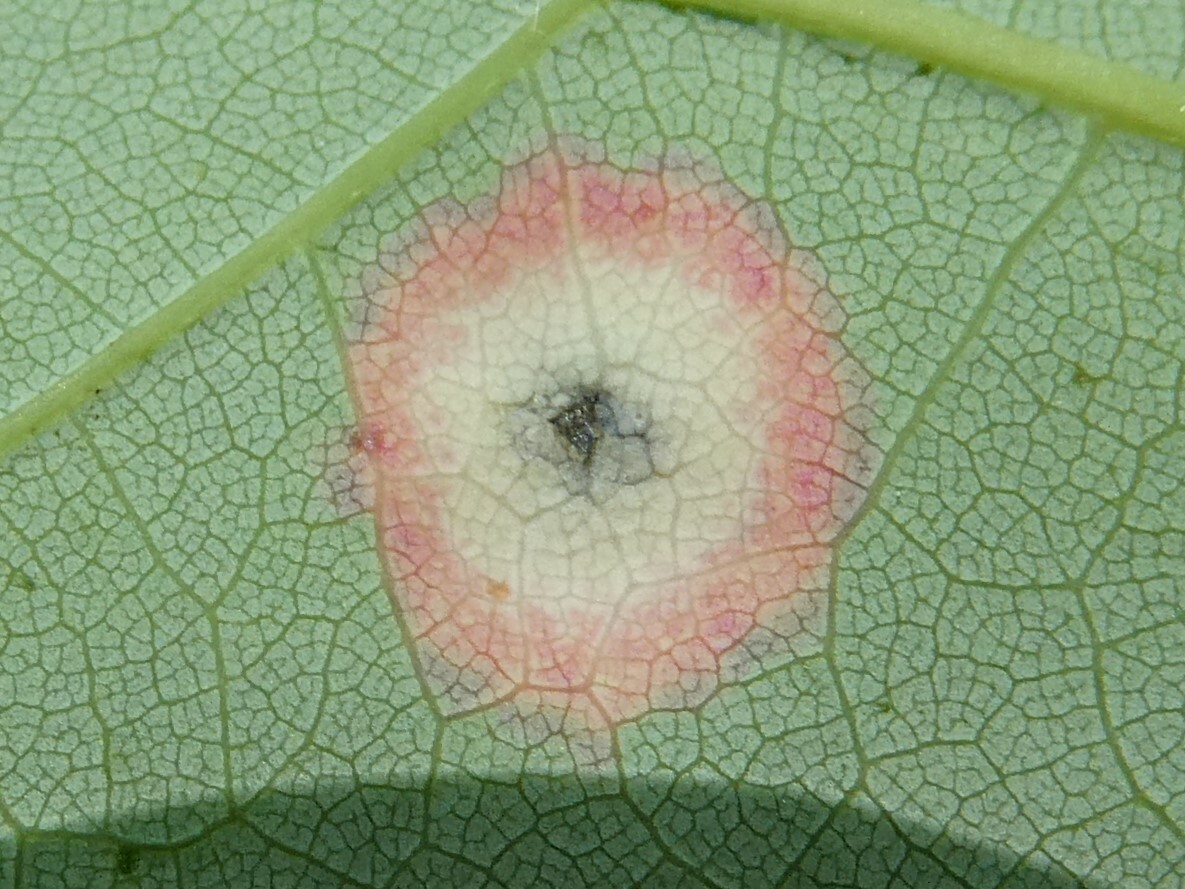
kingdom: Animalia
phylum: Arthropoda
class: Insecta
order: Diptera
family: Cecidomyiidae
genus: Acericecis
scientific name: Acericecis ocellaris
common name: Ocellate gall midge
